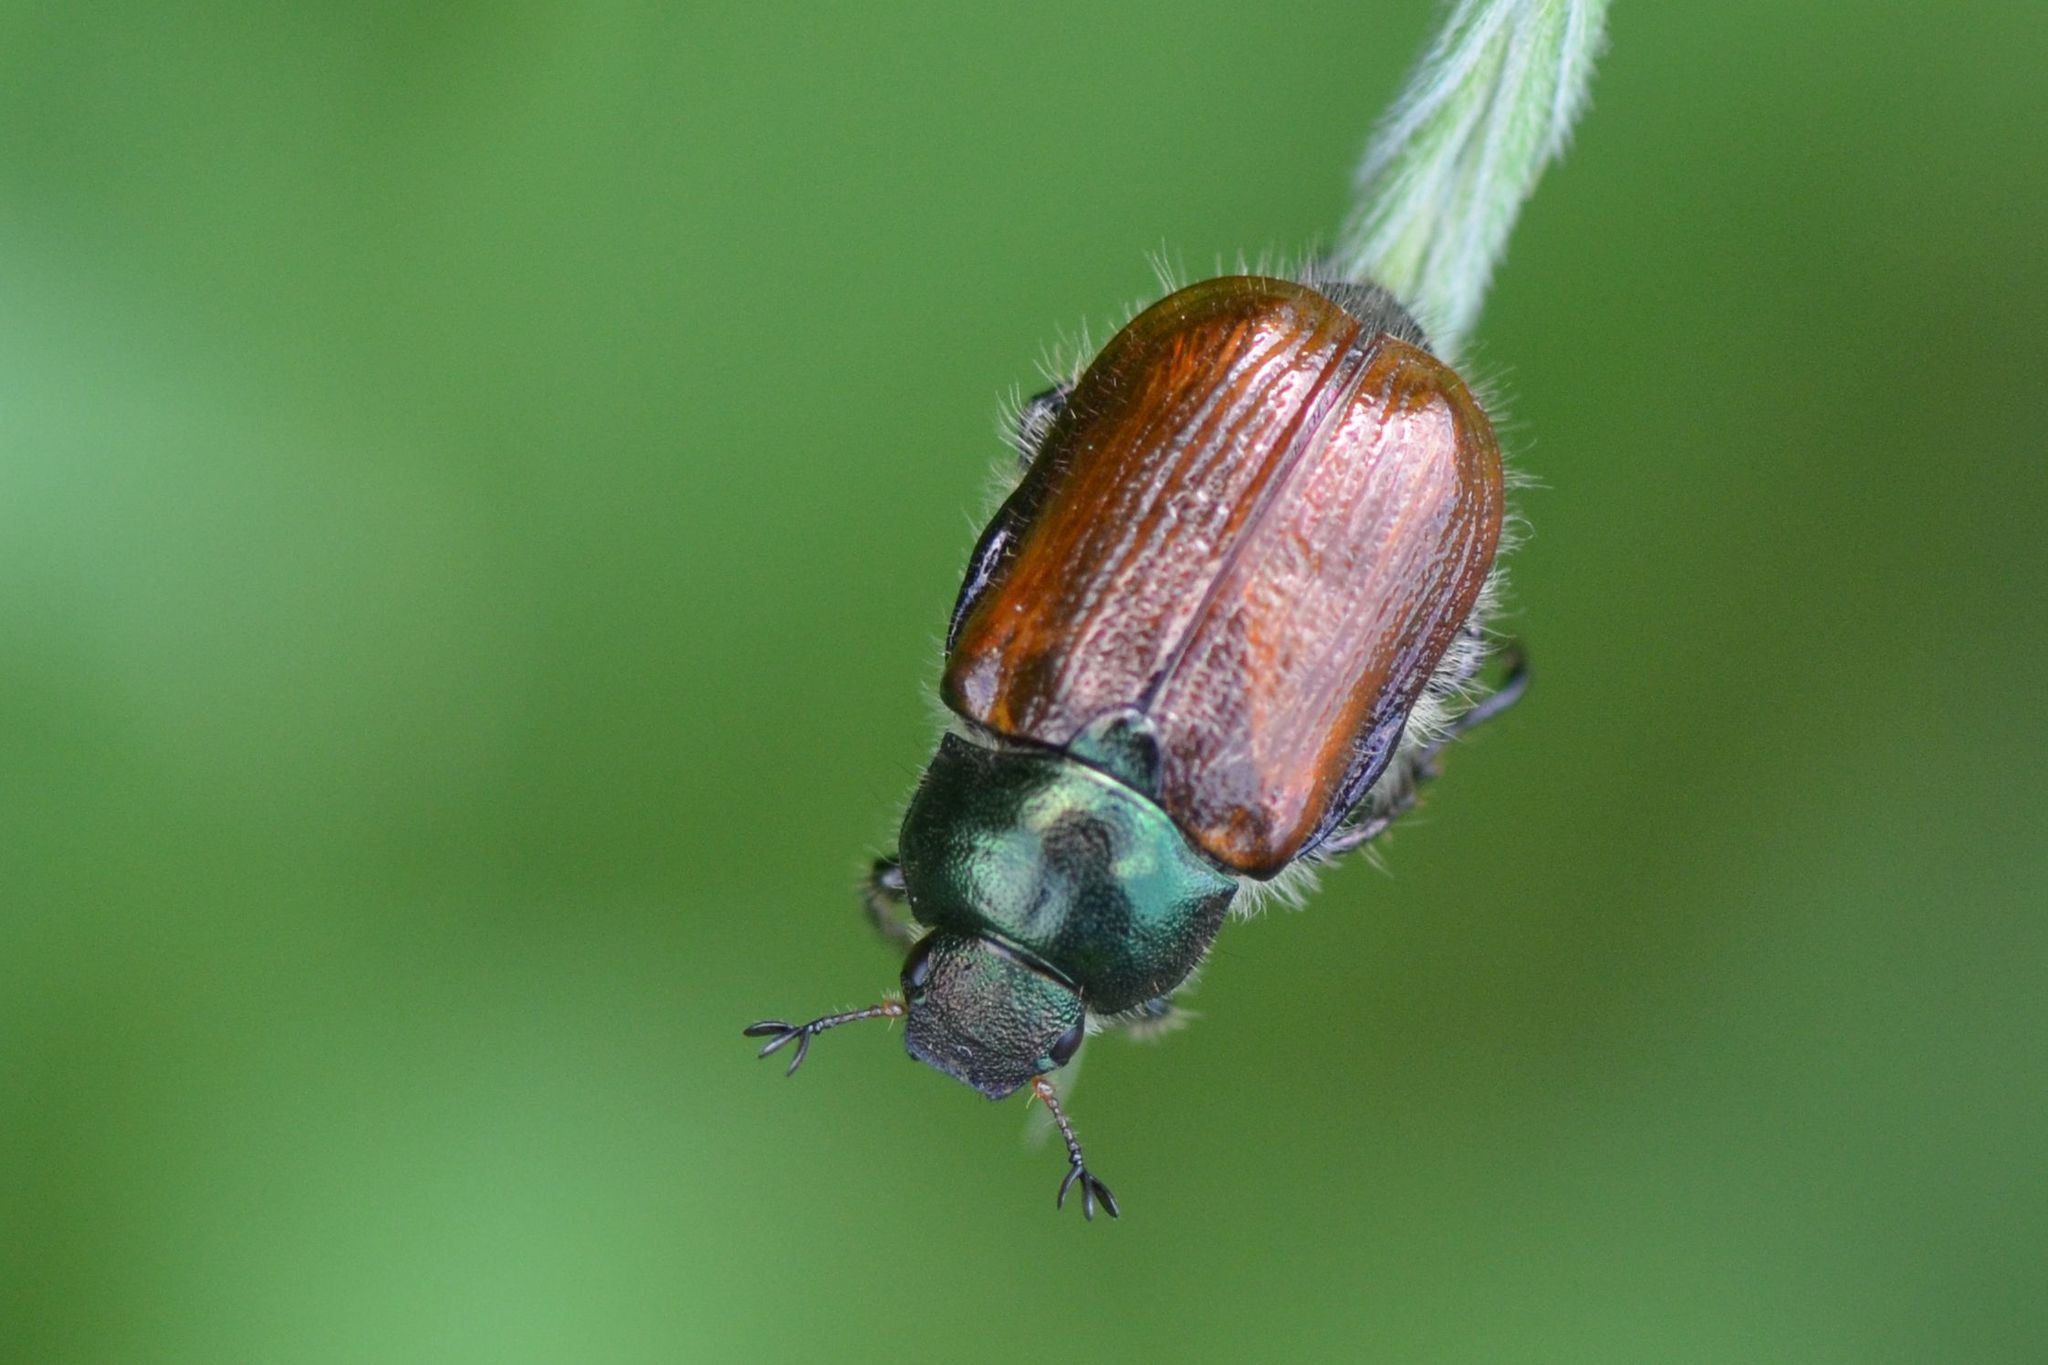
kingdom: Animalia
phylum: Arthropoda
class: Insecta
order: Coleoptera
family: Scarabaeidae
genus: Phyllopertha
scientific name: Phyllopertha horticola
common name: Garden chafer
